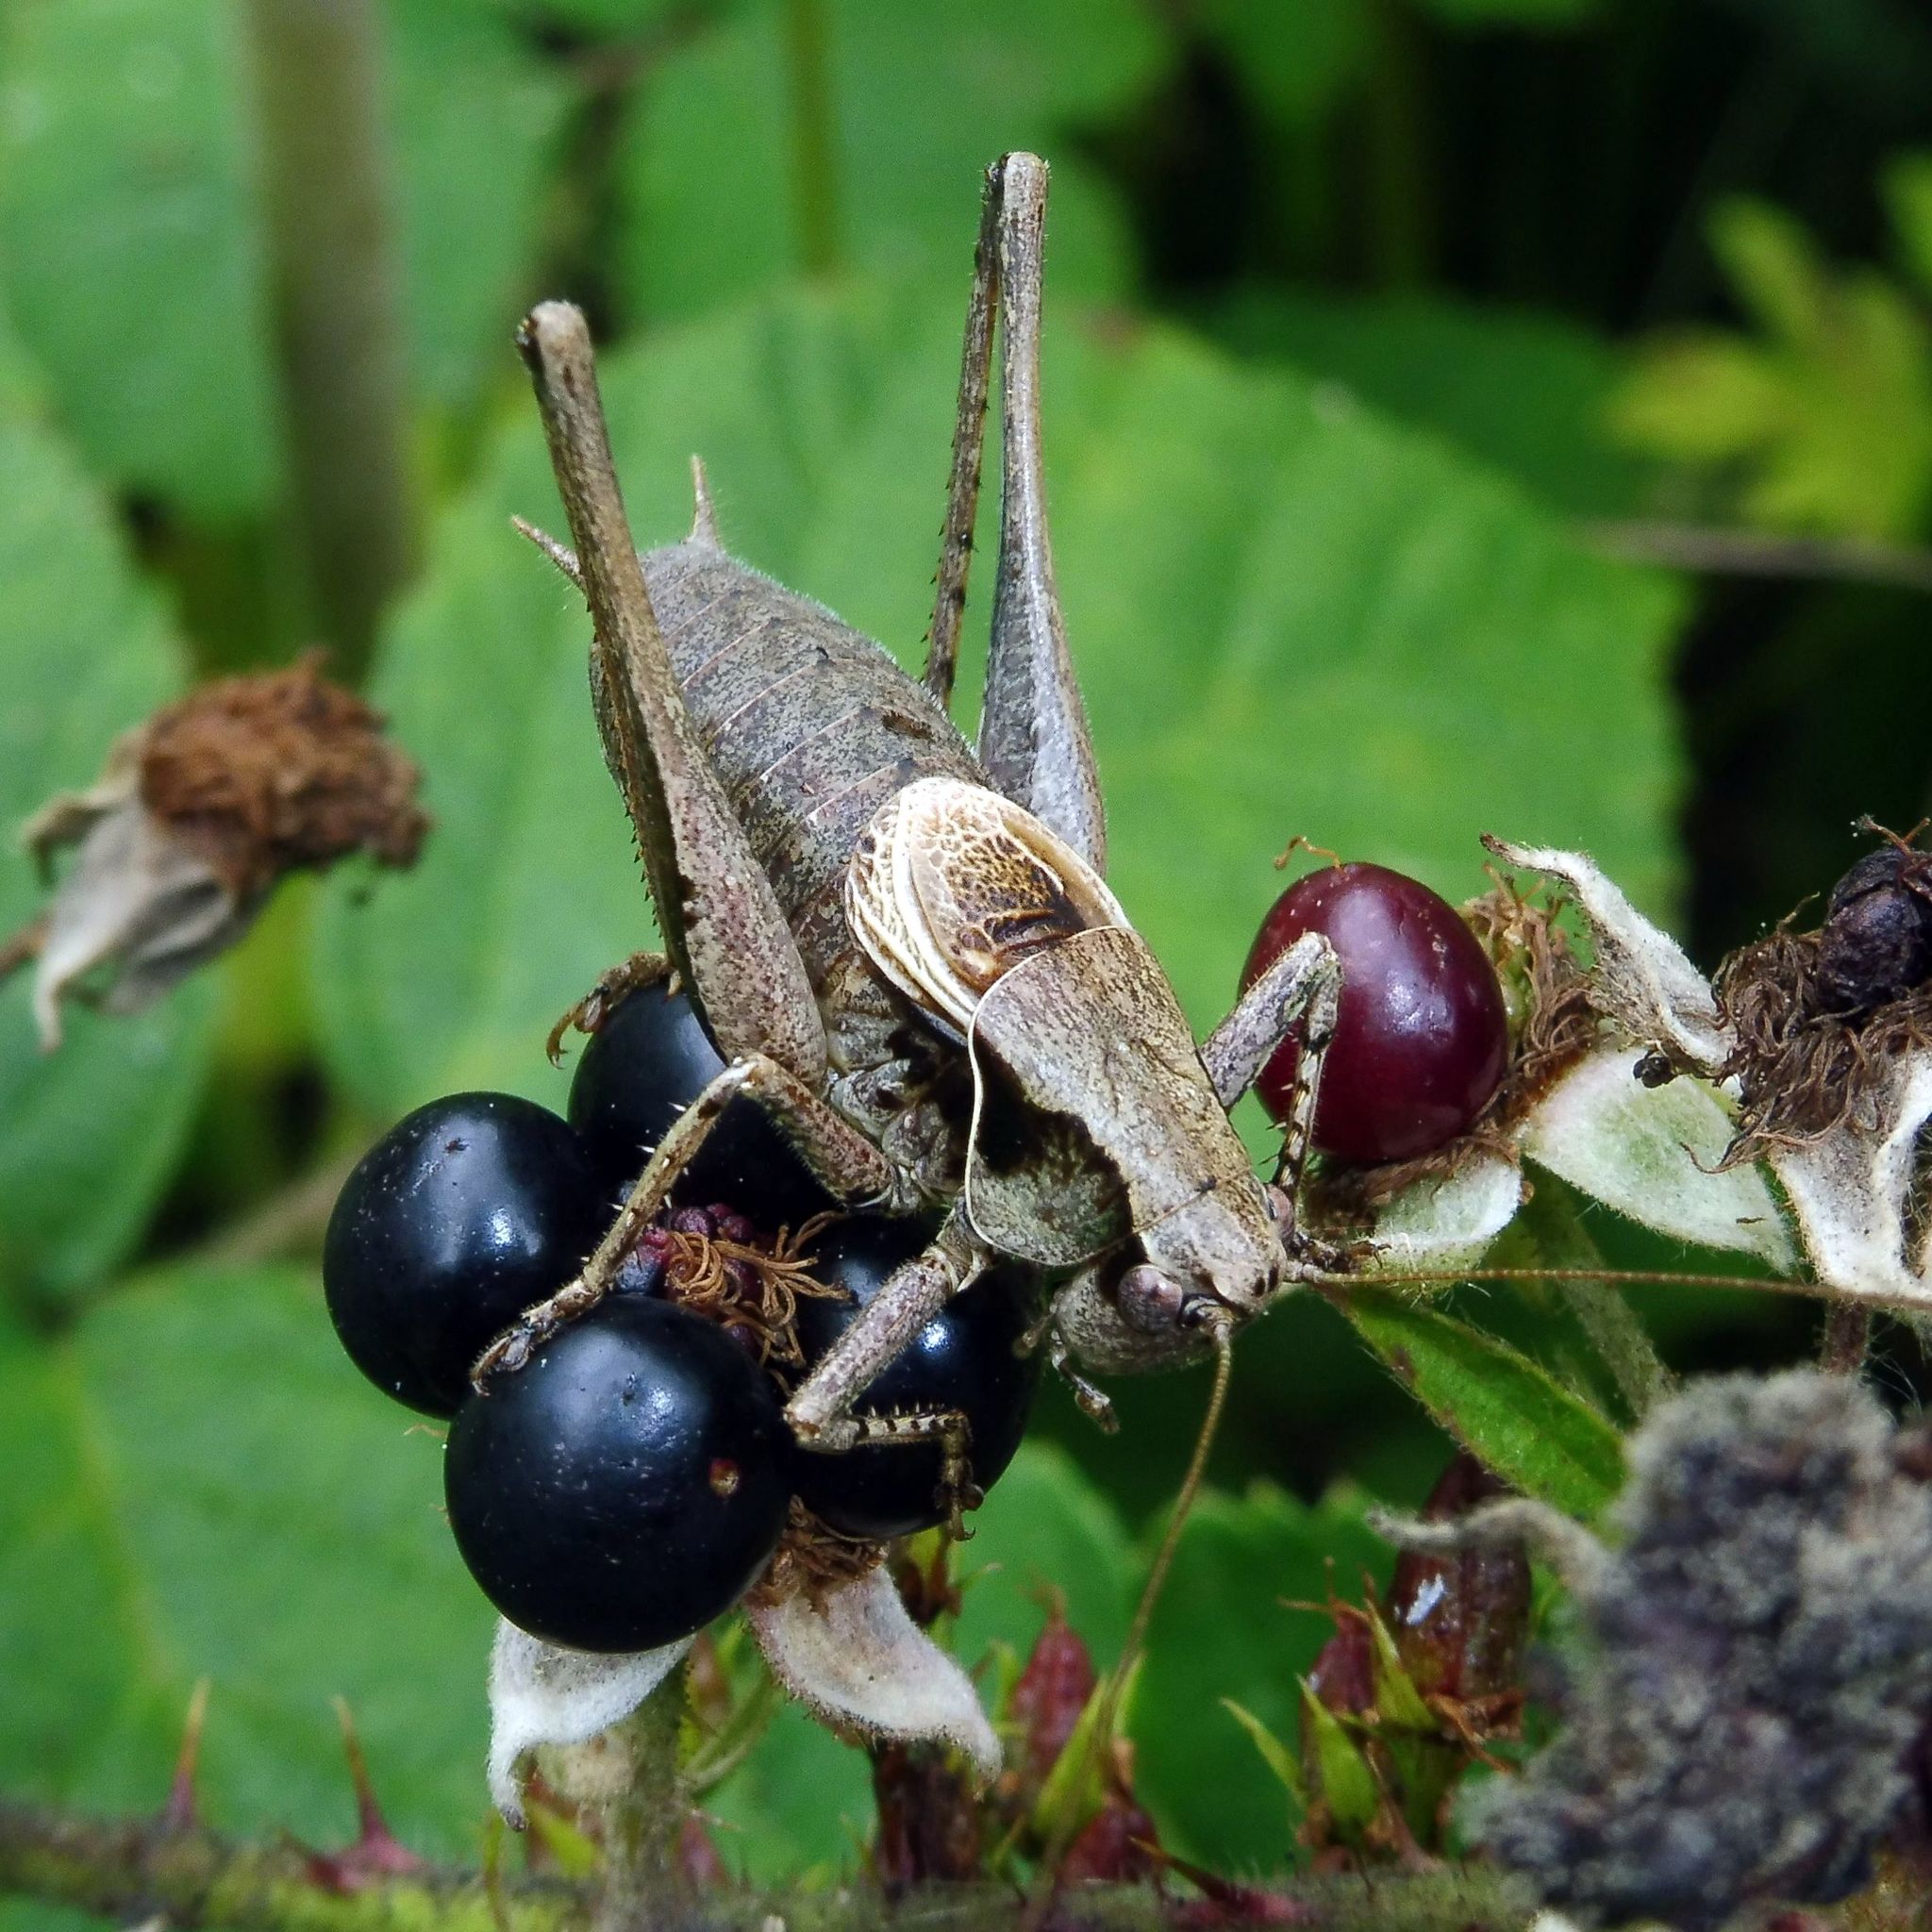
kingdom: Animalia
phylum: Arthropoda
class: Insecta
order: Orthoptera
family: Tettigoniidae
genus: Pholidoptera
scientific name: Pholidoptera griseoaptera
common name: Dark bush-cricket
